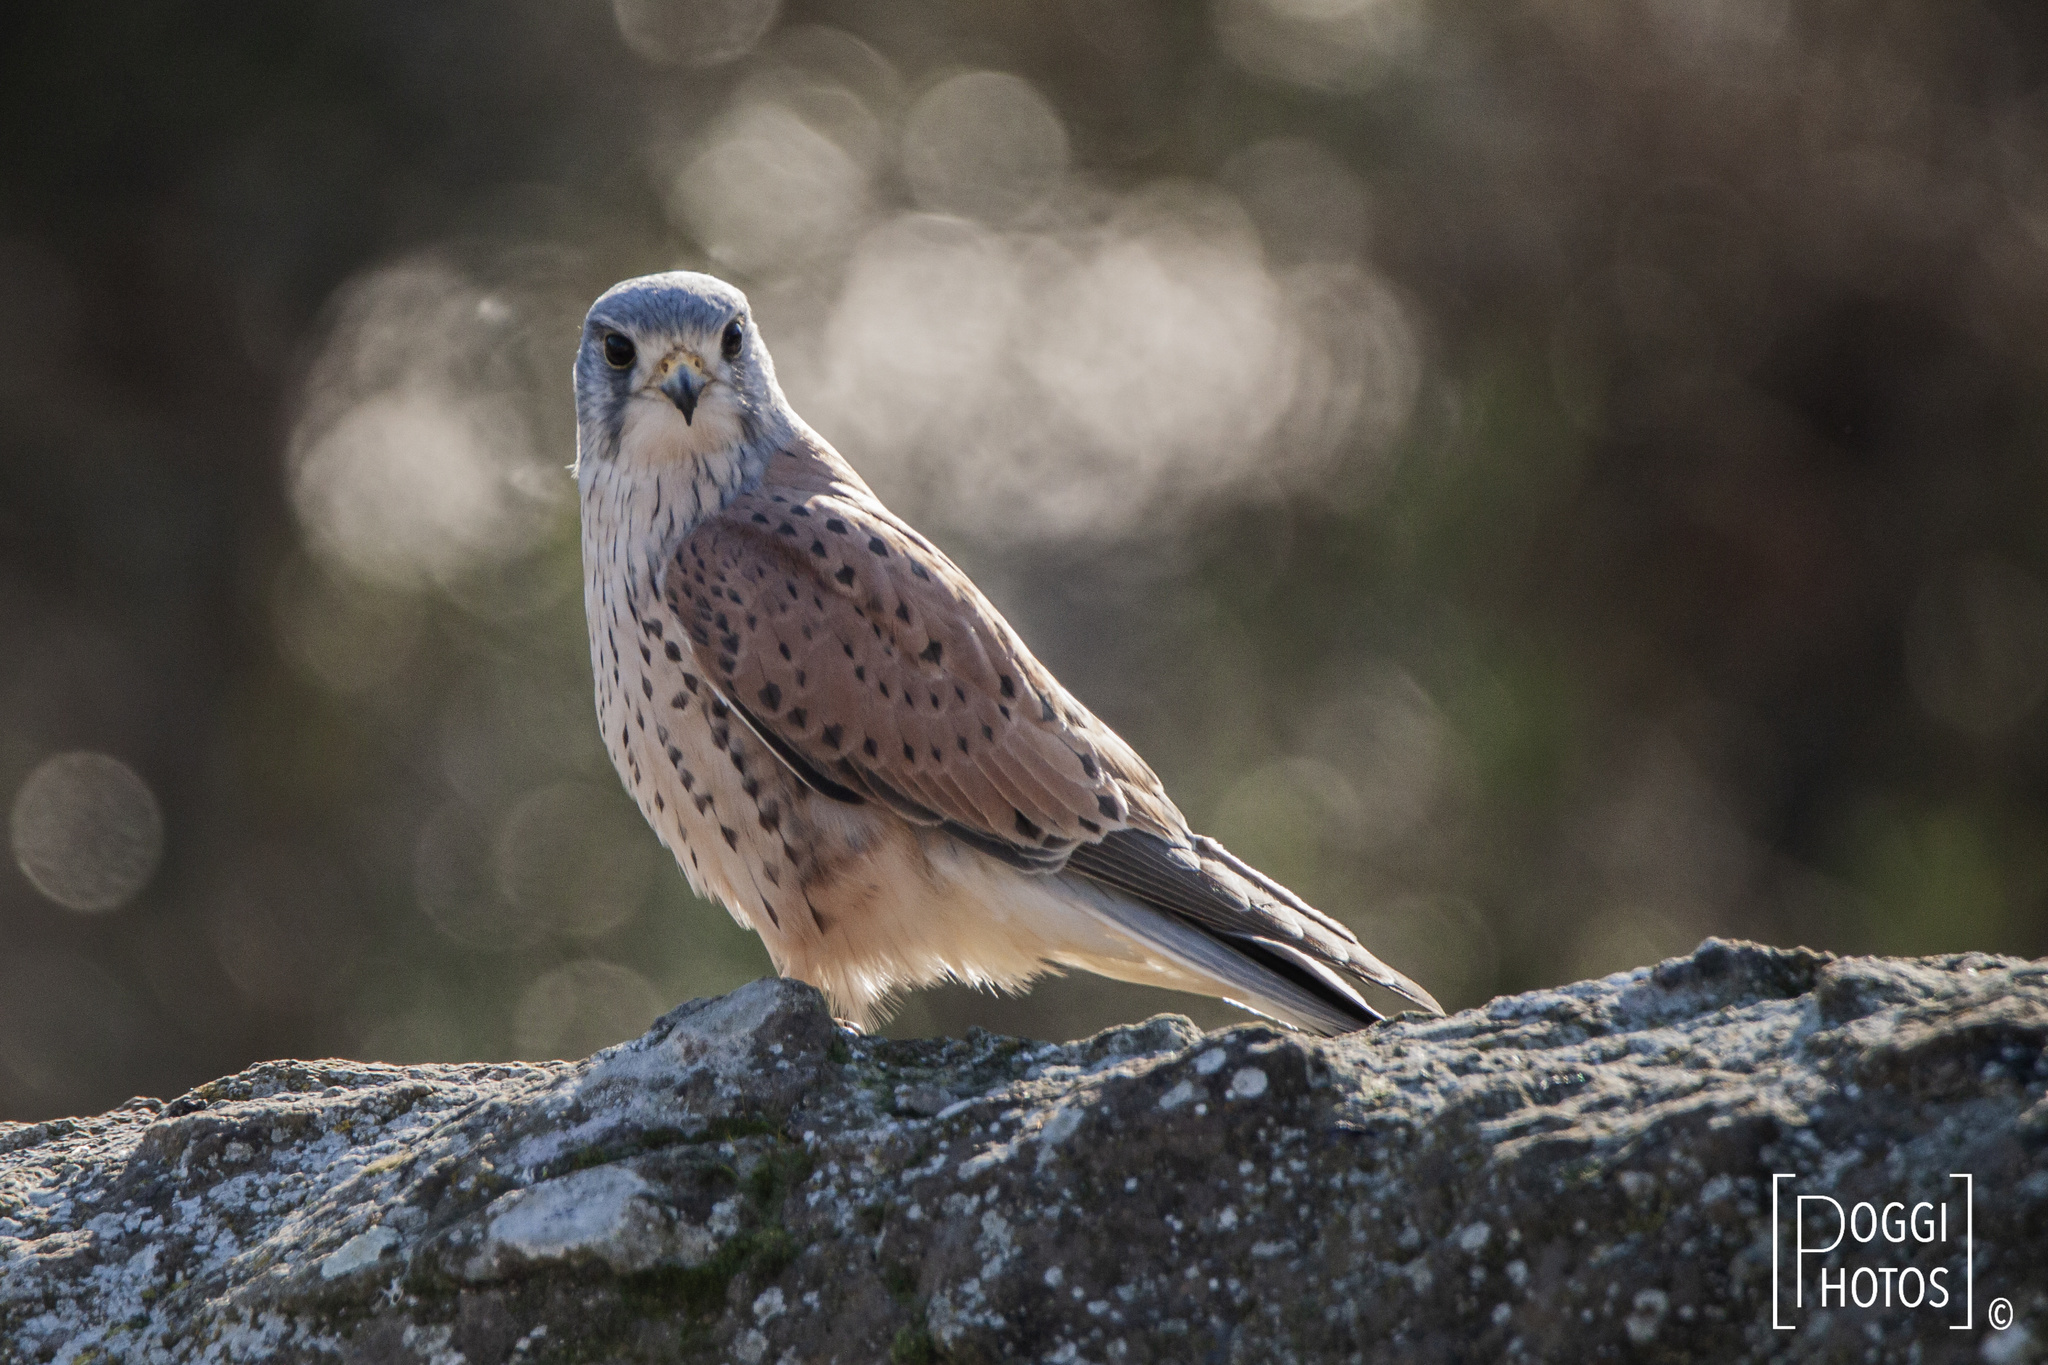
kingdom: Animalia
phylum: Chordata
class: Aves
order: Falconiformes
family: Falconidae
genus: Falco
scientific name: Falco tinnunculus
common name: Common kestrel
